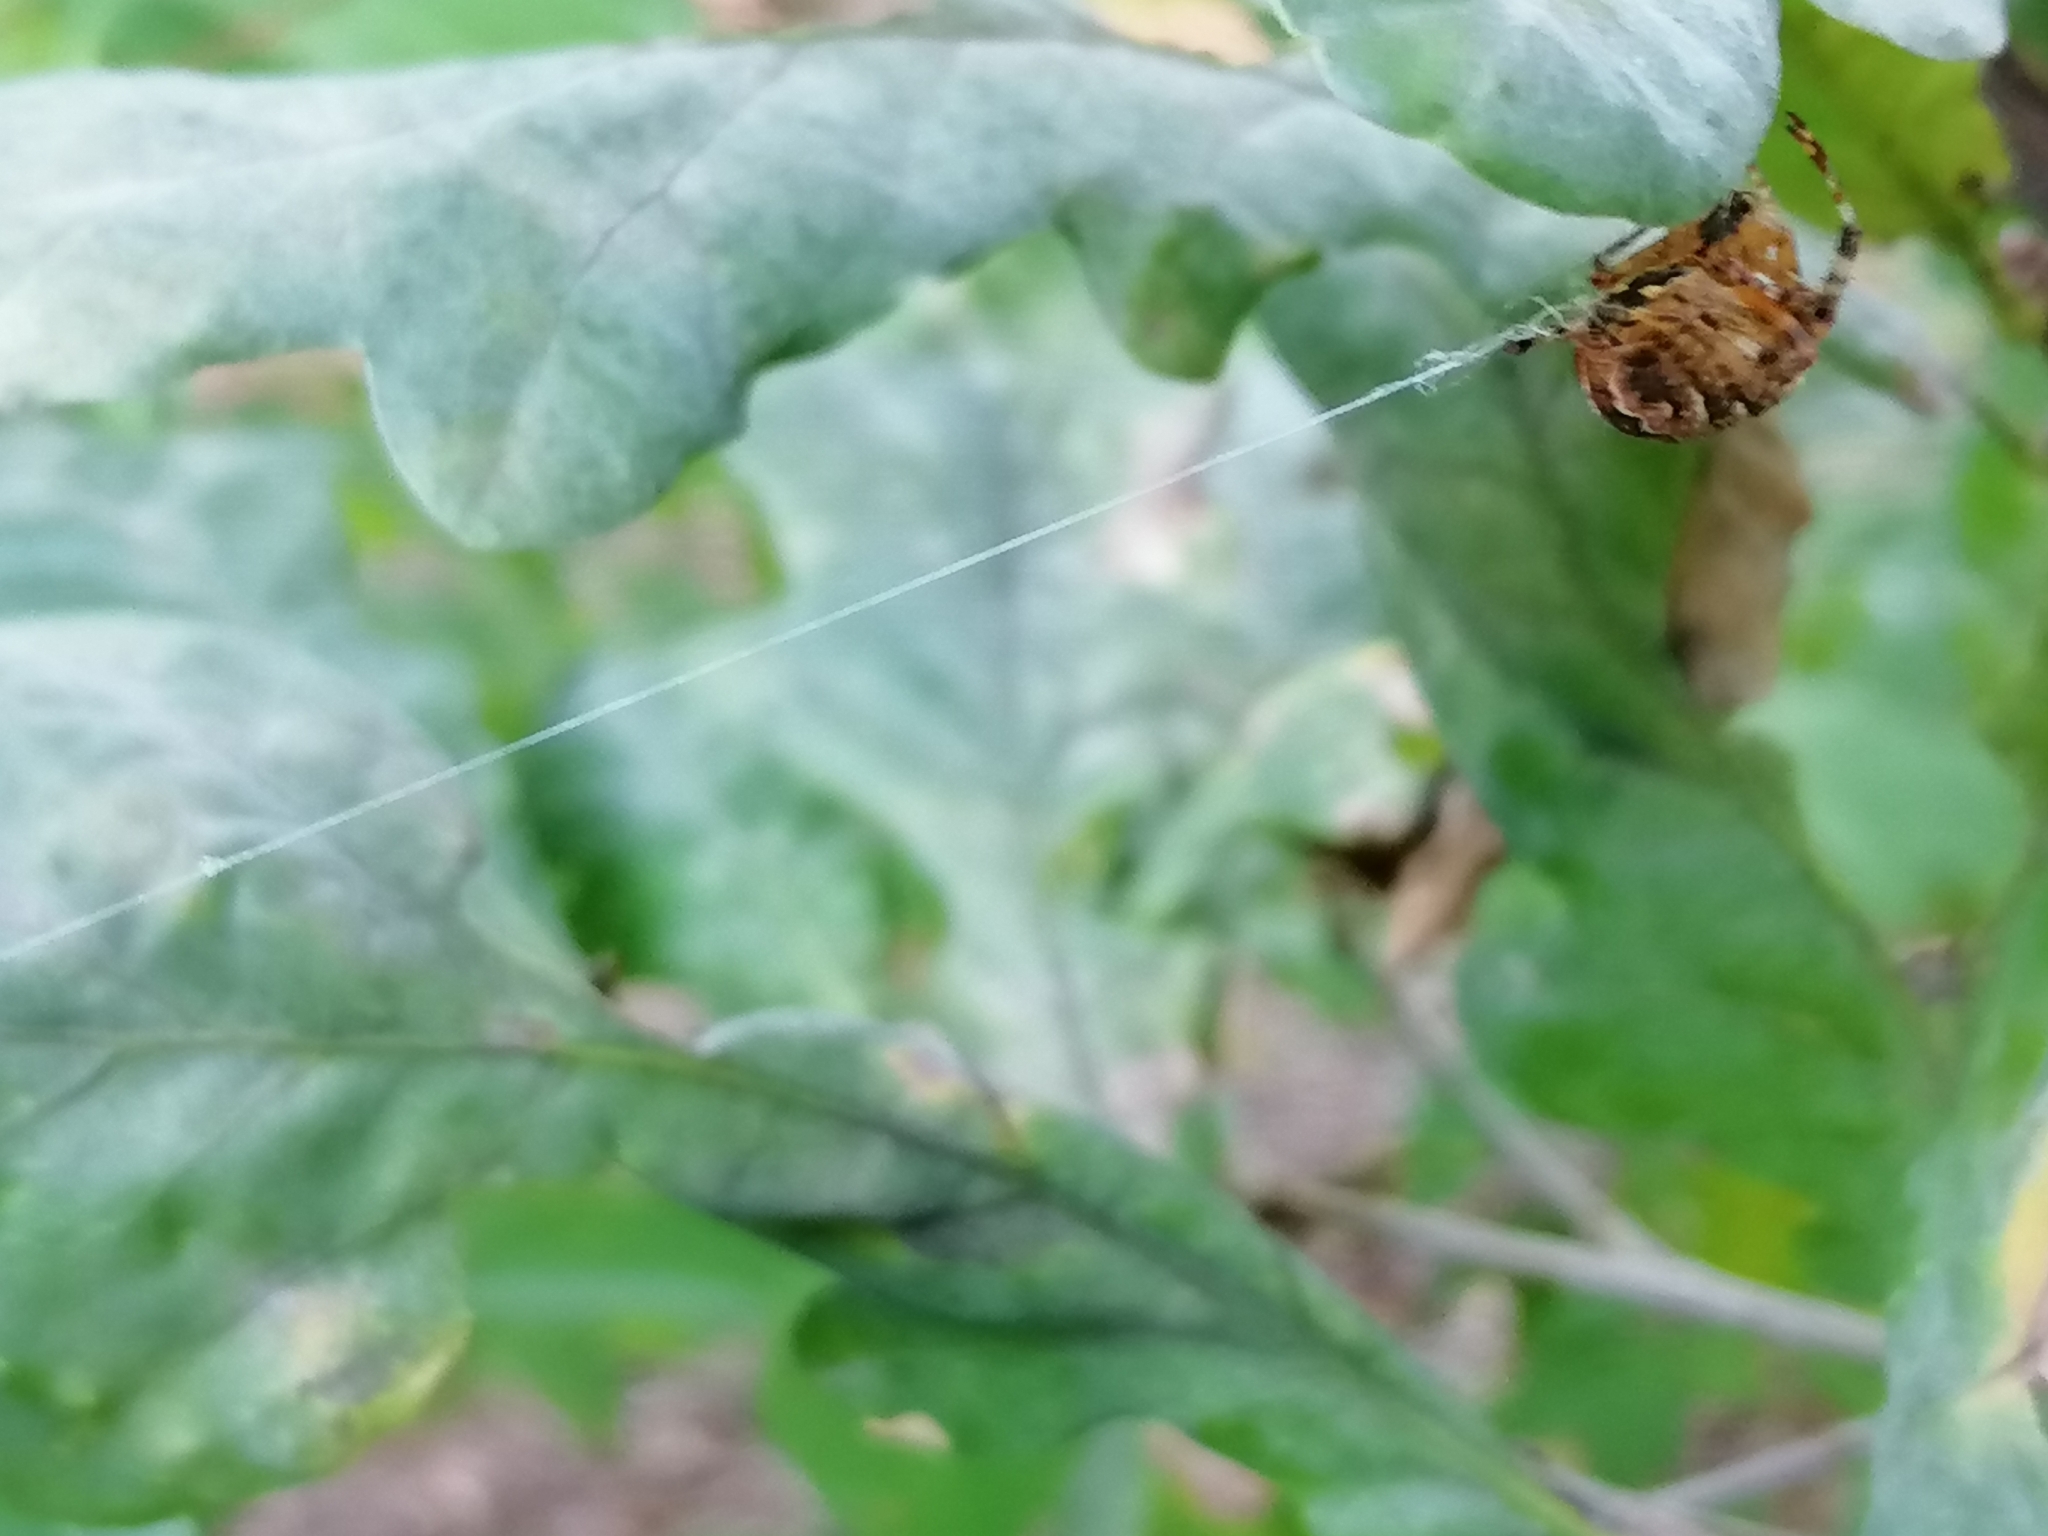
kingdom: Animalia
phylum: Arthropoda
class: Arachnida
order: Araneae
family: Araneidae
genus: Araneus
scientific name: Araneus diadematus
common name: Cross orbweaver
